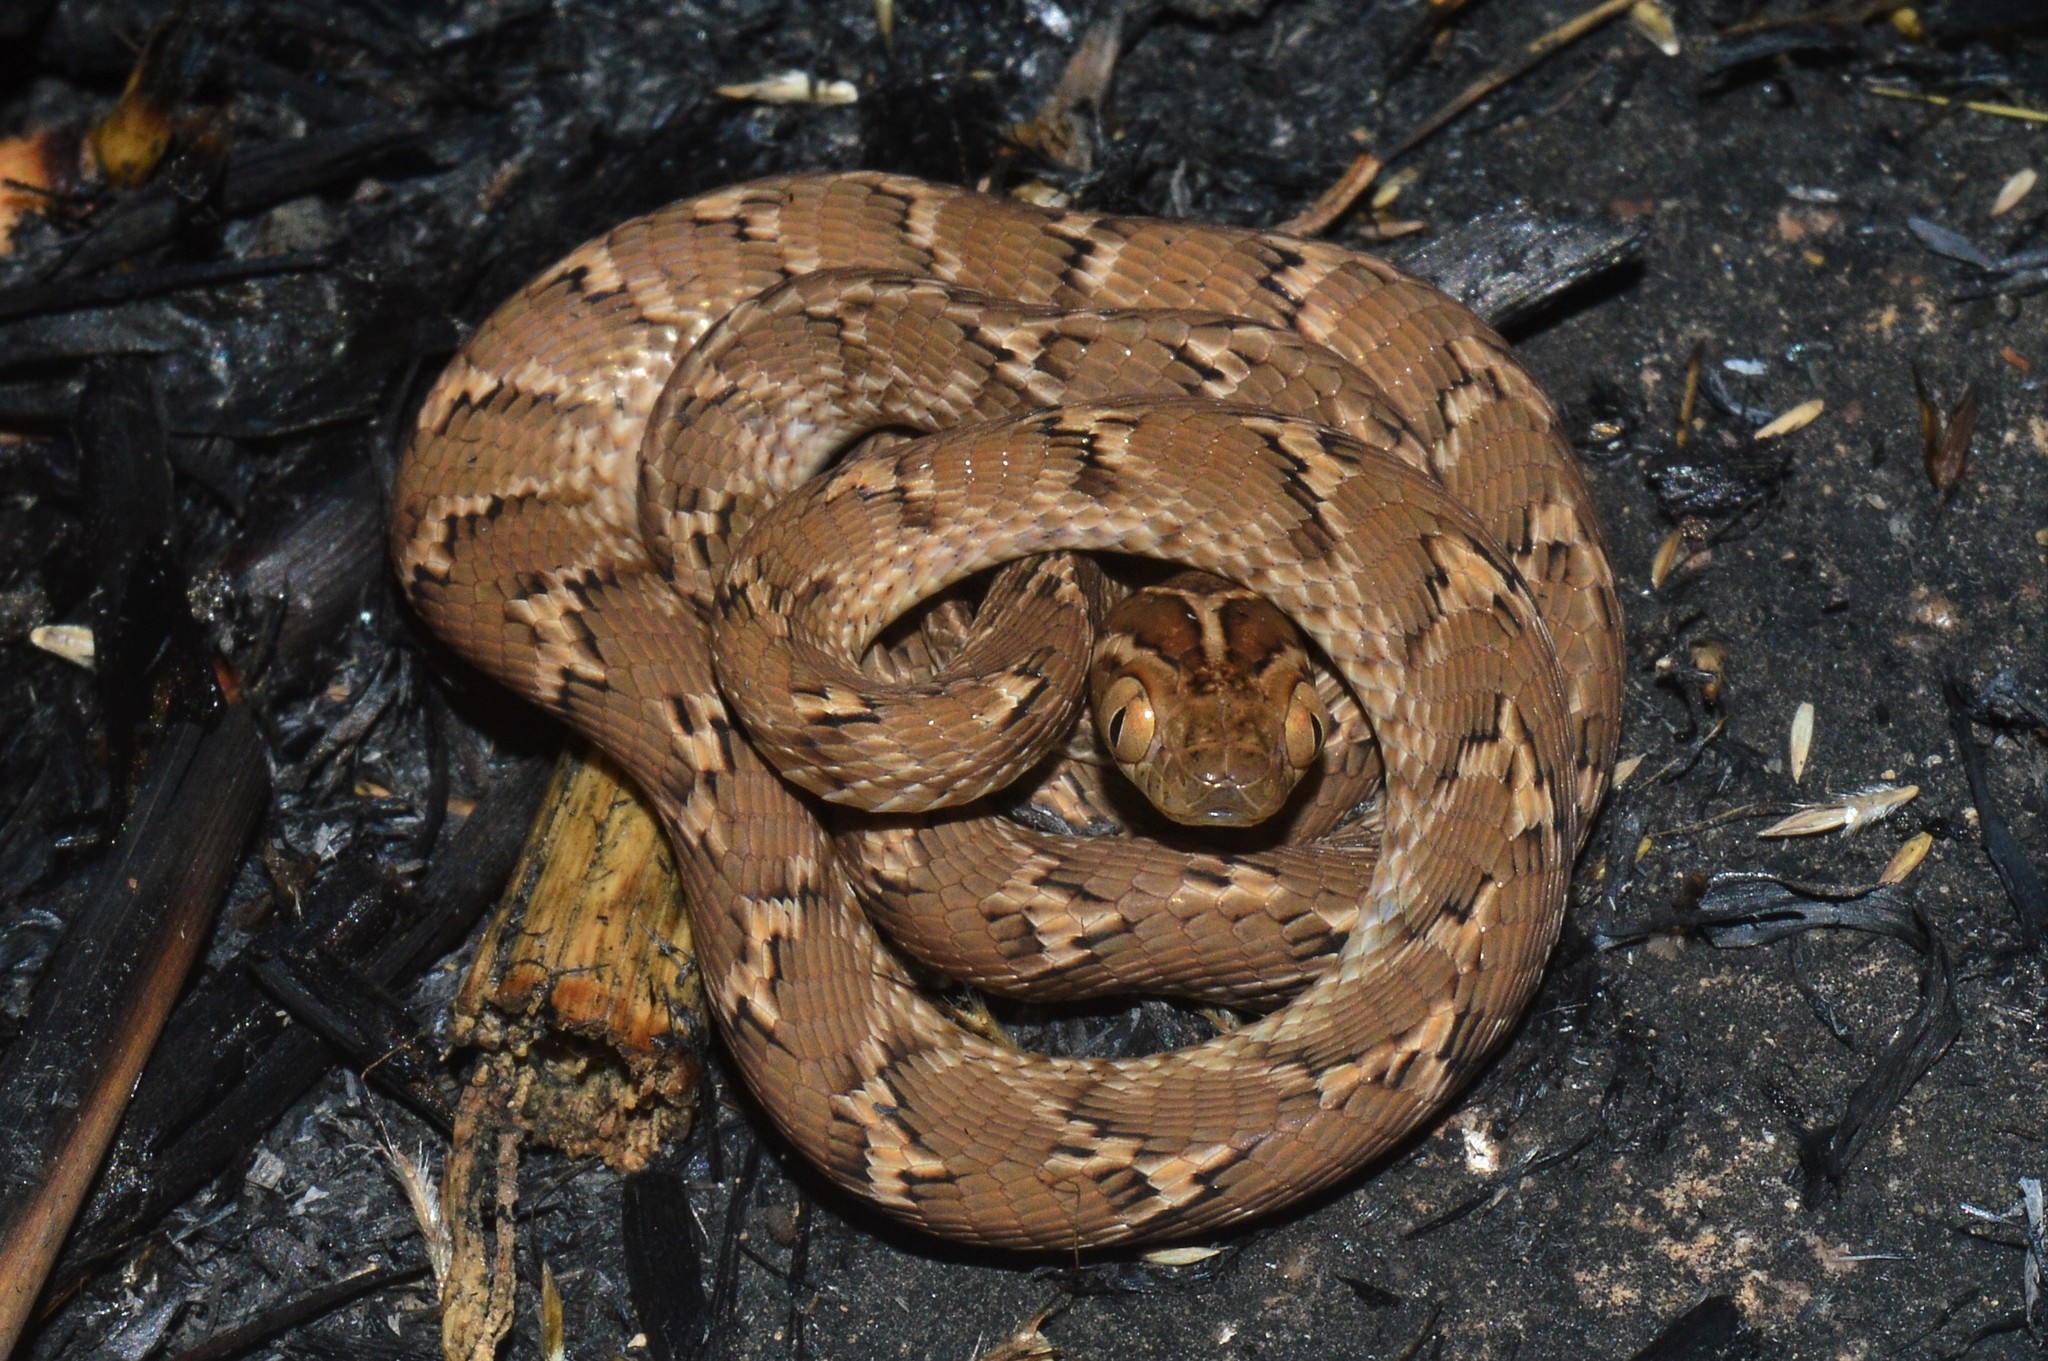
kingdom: Animalia
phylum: Chordata
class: Squamata
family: Colubridae
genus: Boiga
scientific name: Boiga trigonata
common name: Common cat snake
